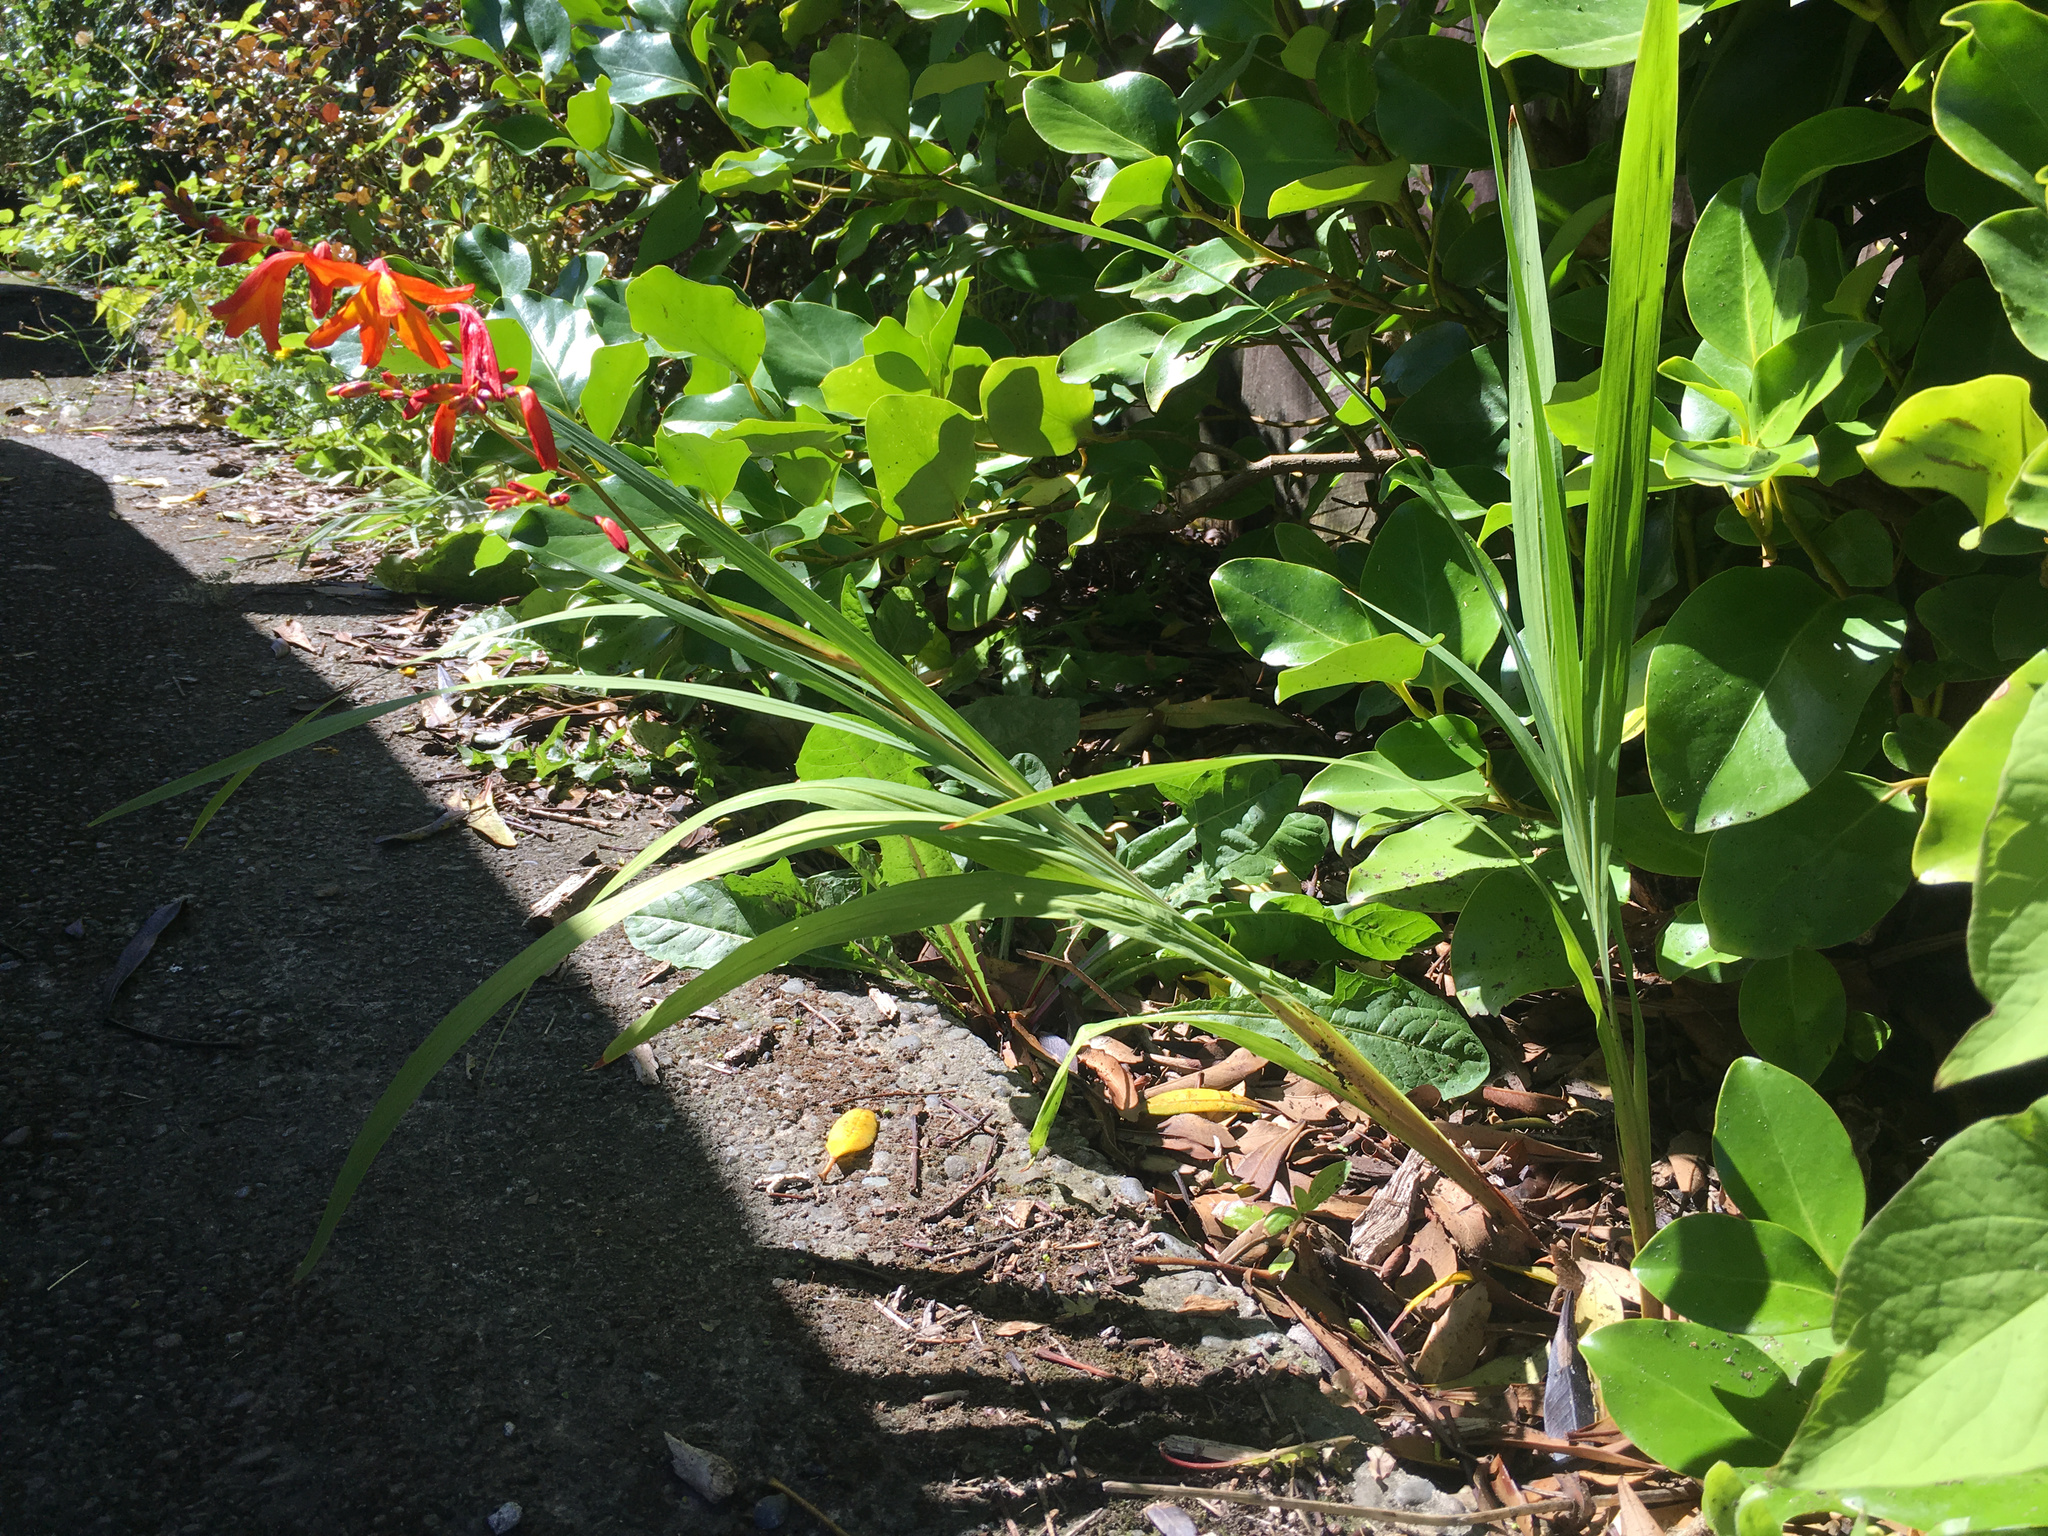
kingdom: Plantae
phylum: Tracheophyta
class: Liliopsida
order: Asparagales
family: Iridaceae
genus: Crocosmia
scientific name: Crocosmia crocosmiiflora
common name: Montbretia
